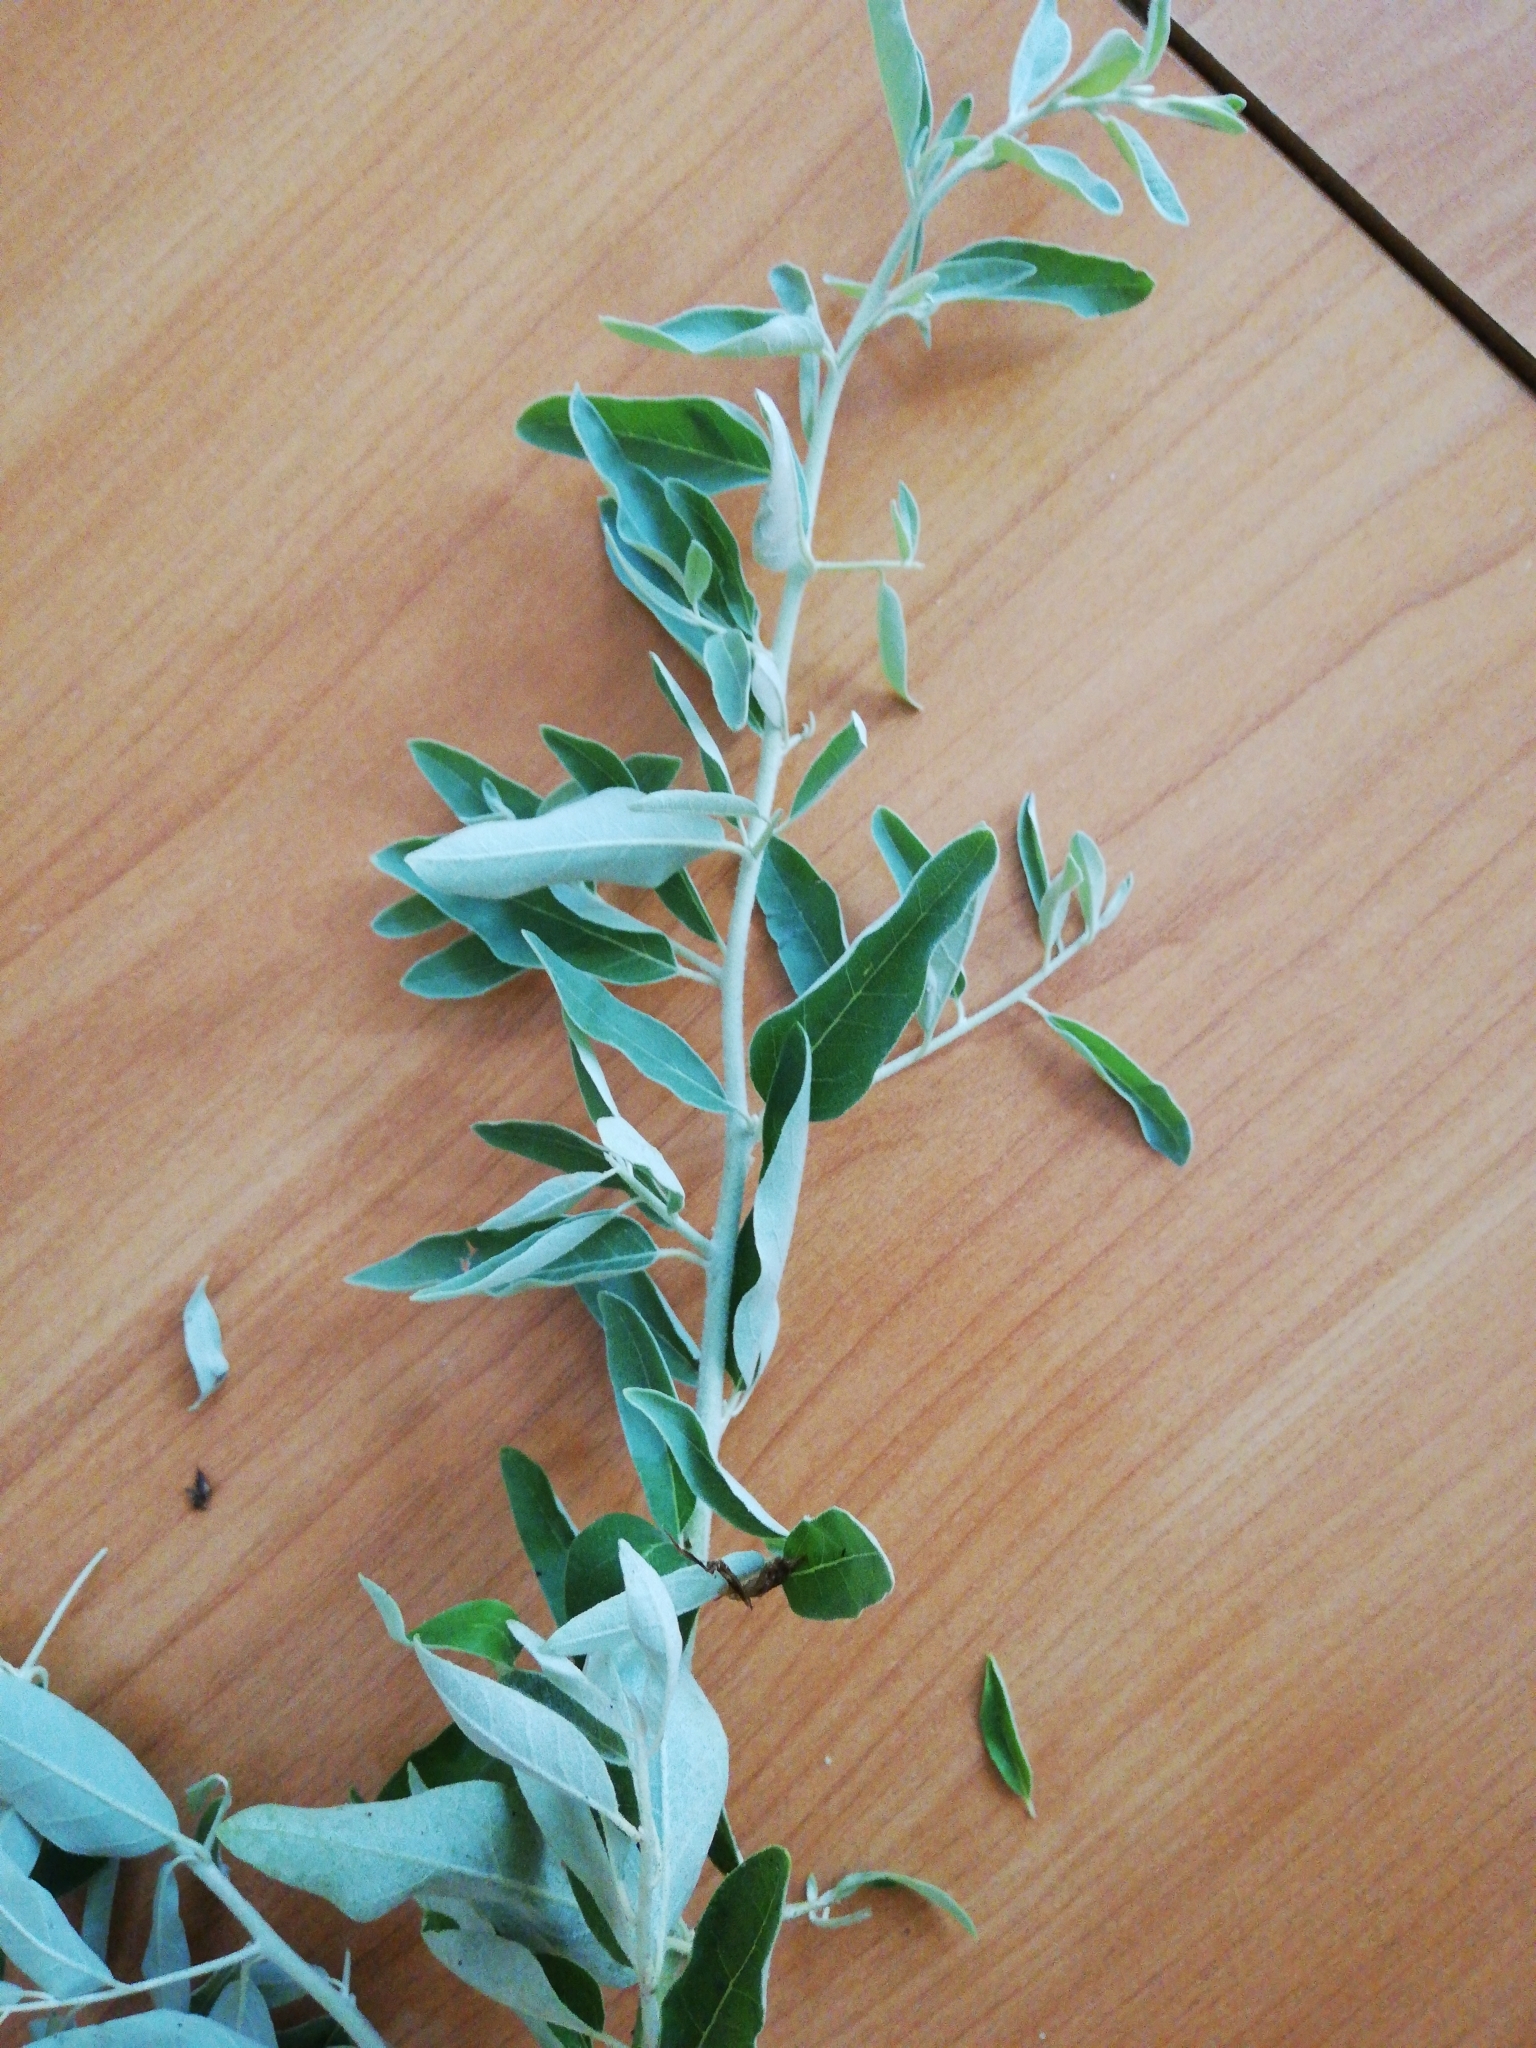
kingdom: Plantae
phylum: Tracheophyta
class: Magnoliopsida
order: Rosales
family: Elaeagnaceae
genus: Elaeagnus
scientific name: Elaeagnus angustifolia
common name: Russian olive
